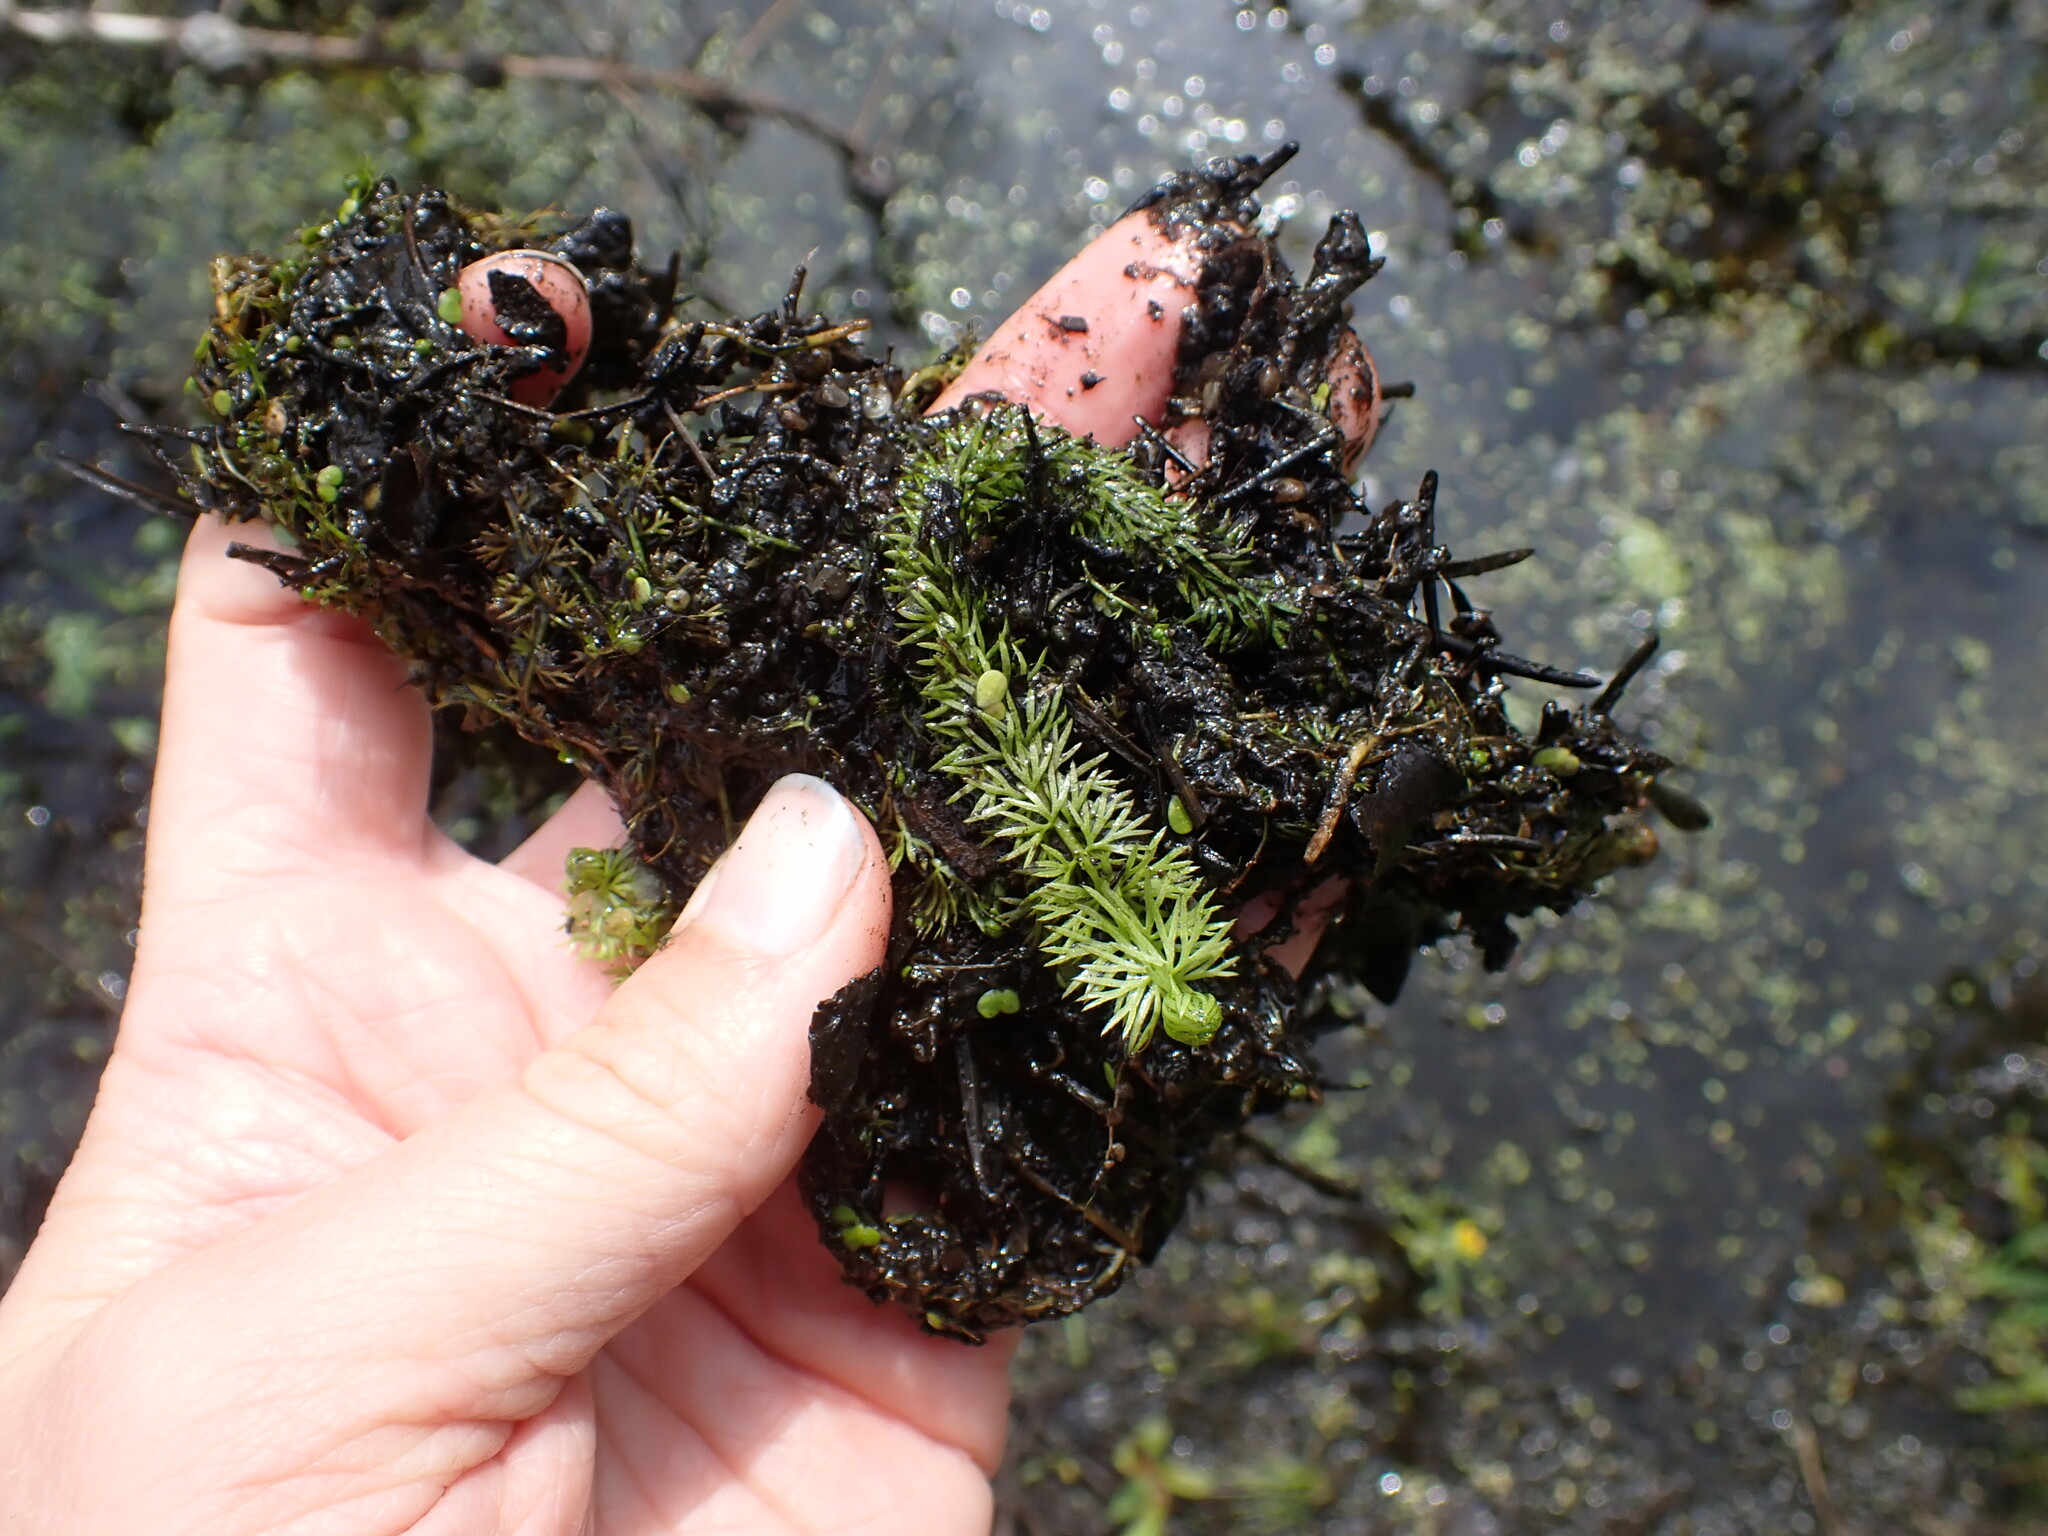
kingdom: Plantae
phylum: Tracheophyta
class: Magnoliopsida
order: Lamiales
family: Lentibulariaceae
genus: Utricularia
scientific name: Utricularia intermedia
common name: Intermediate bladderwort
